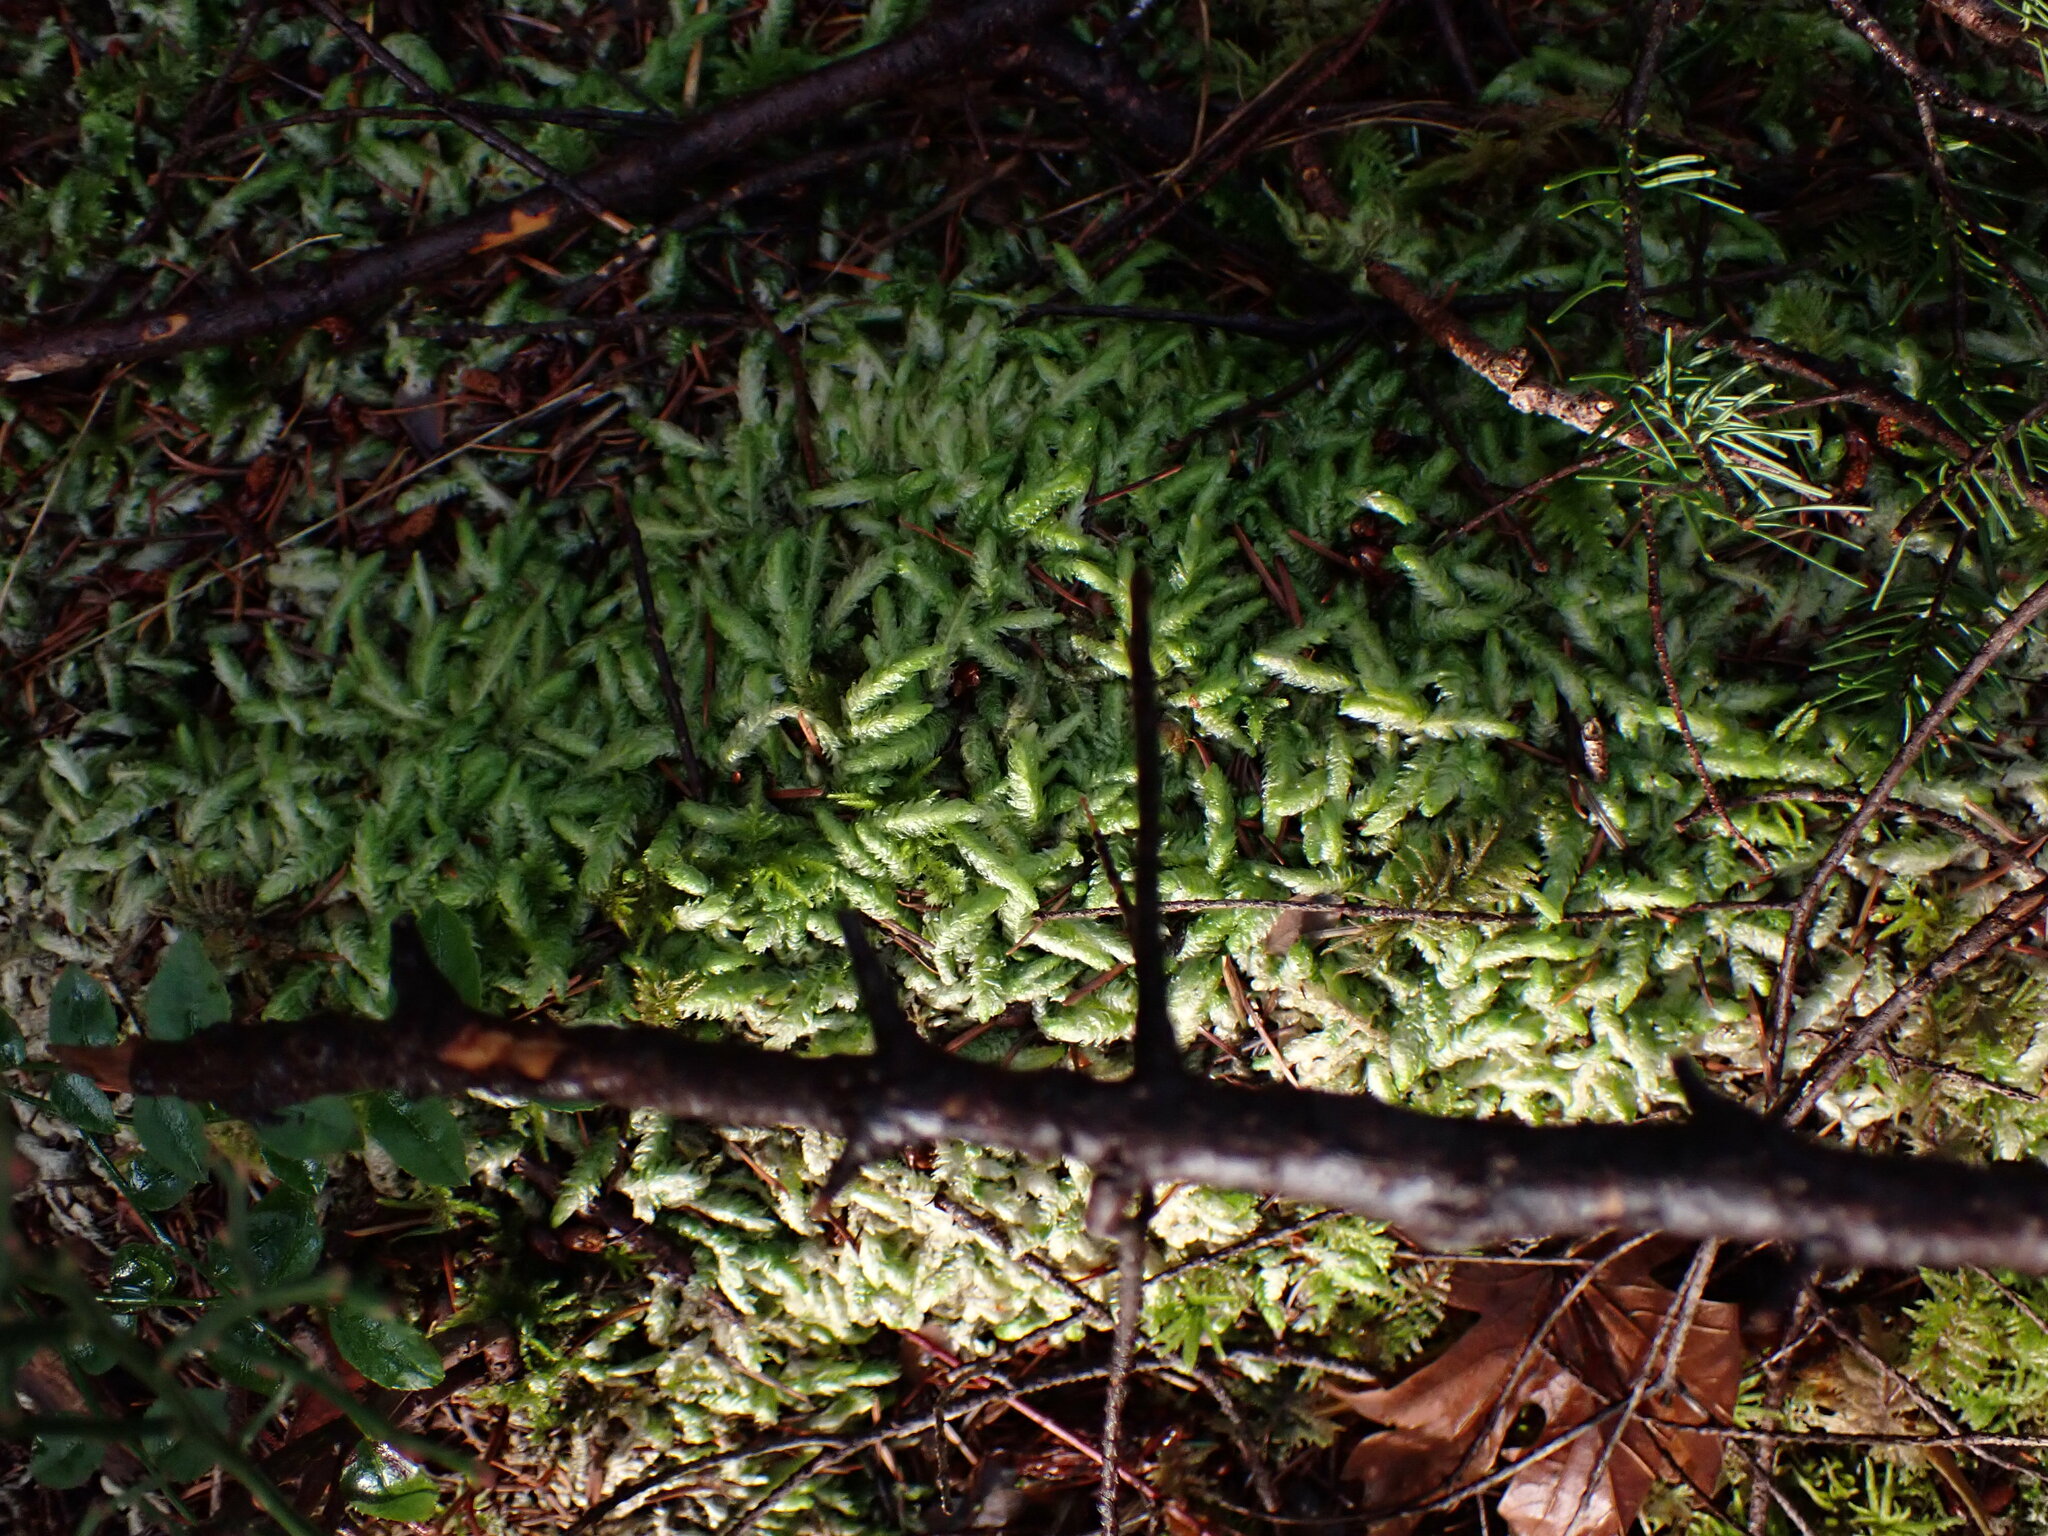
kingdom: Plantae
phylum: Bryophyta
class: Bryopsida
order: Hypnales
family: Plagiotheciaceae
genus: Plagiothecium
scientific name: Plagiothecium undulatum
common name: Waved silk-moss
